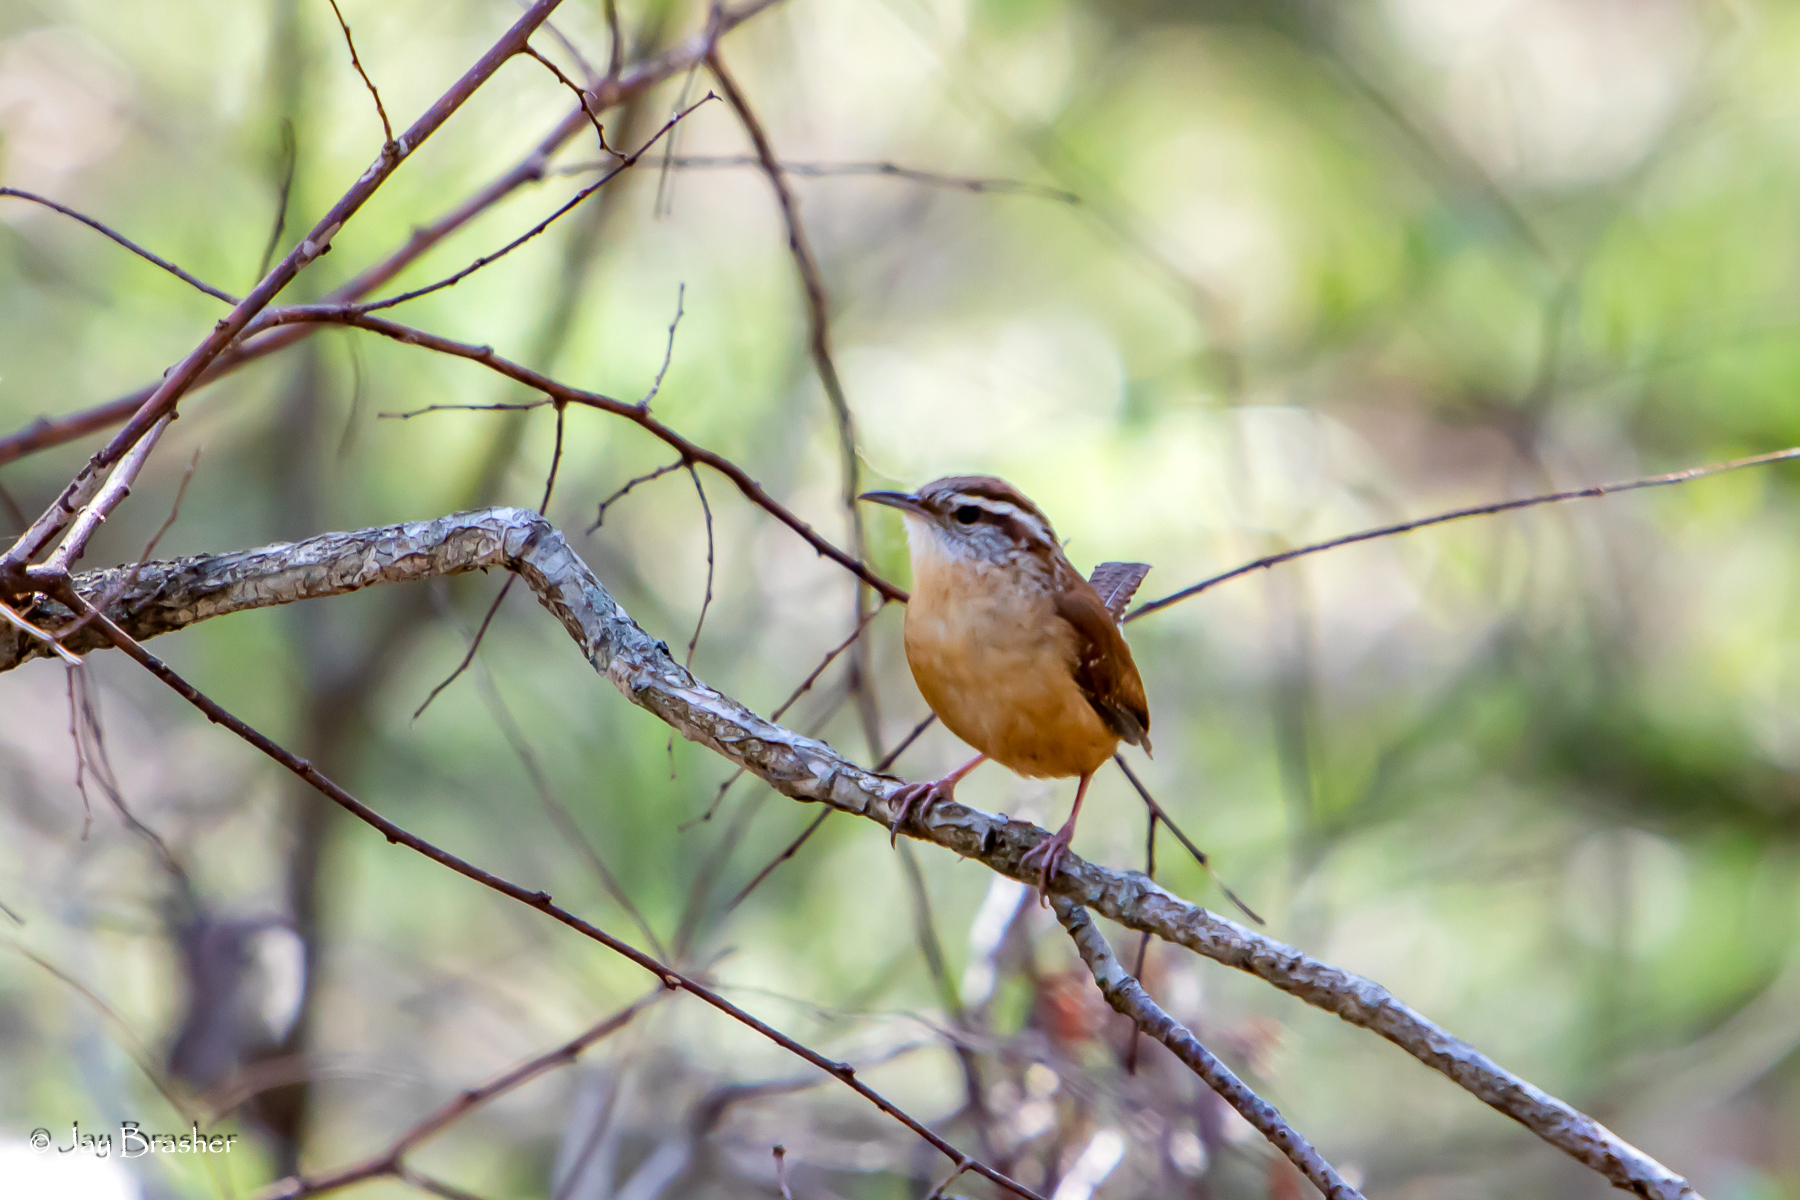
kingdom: Animalia
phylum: Chordata
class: Aves
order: Passeriformes
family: Troglodytidae
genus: Thryothorus
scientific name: Thryothorus ludovicianus
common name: Carolina wren
